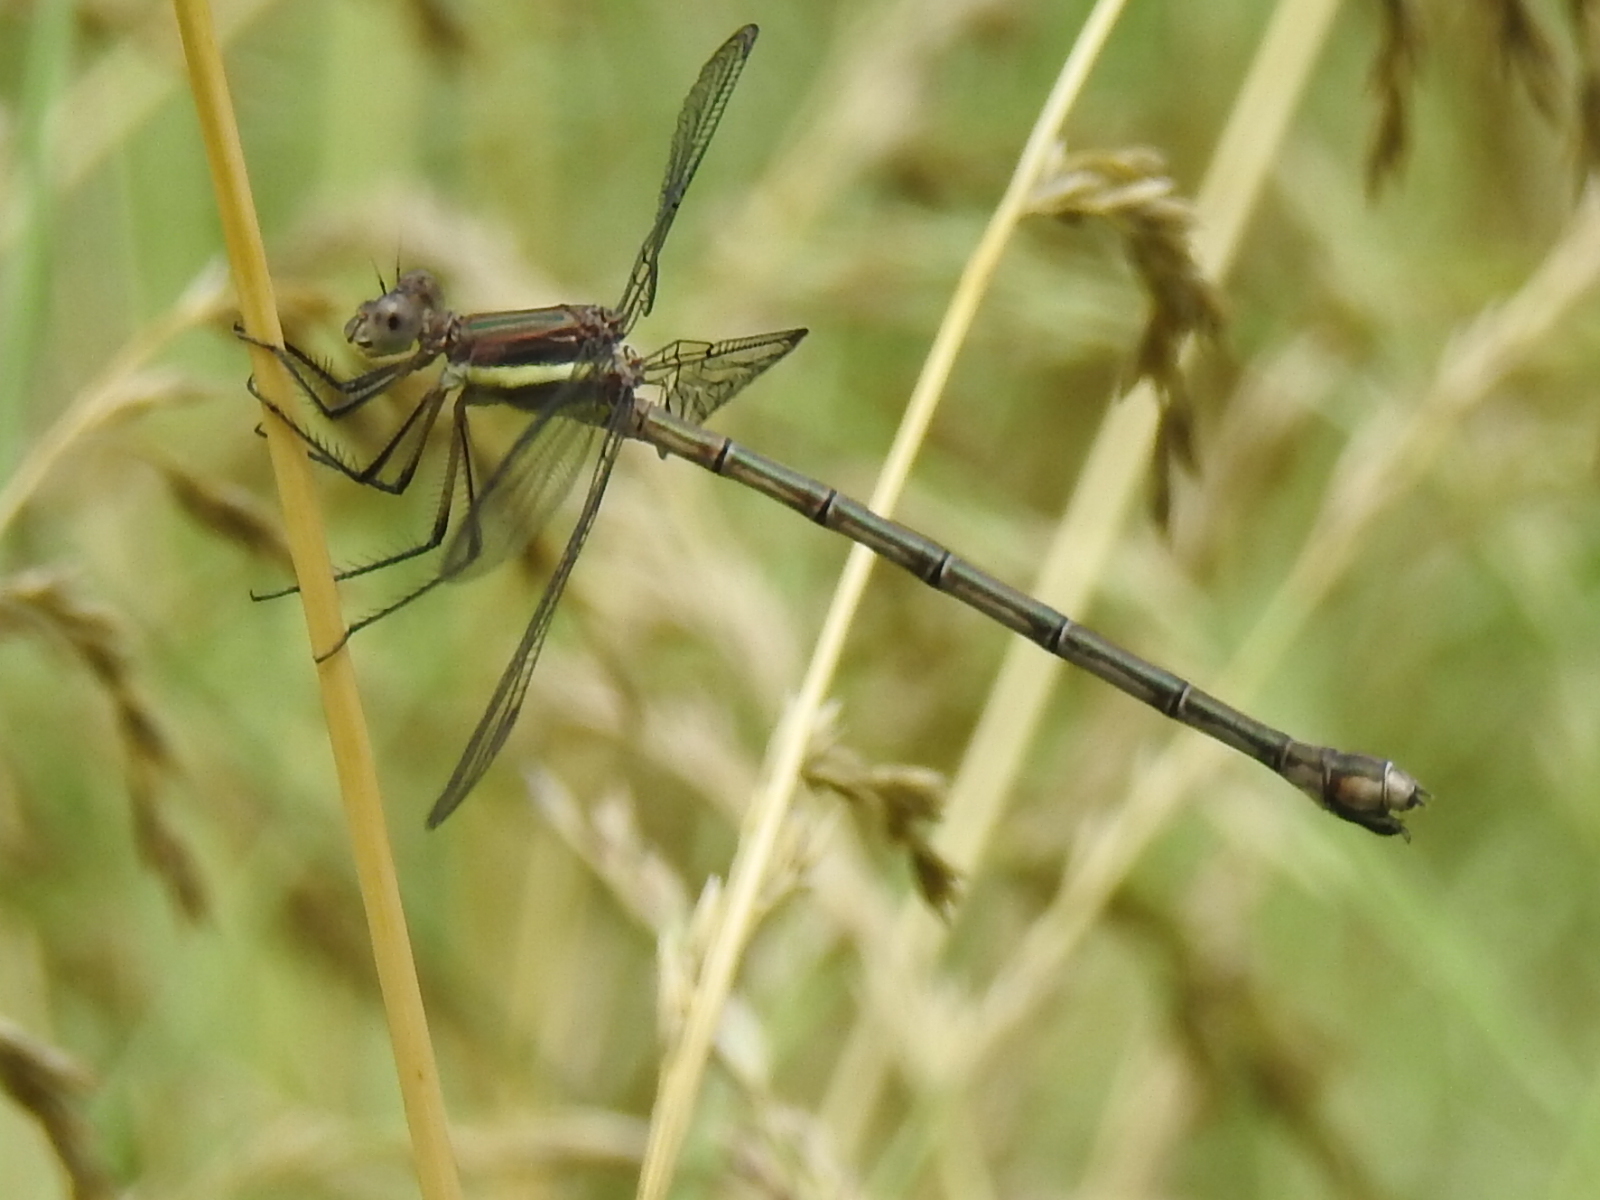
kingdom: Animalia
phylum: Arthropoda
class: Insecta
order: Odonata
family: Lestidae
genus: Archilestes
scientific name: Archilestes grandis
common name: Great spreadwing
